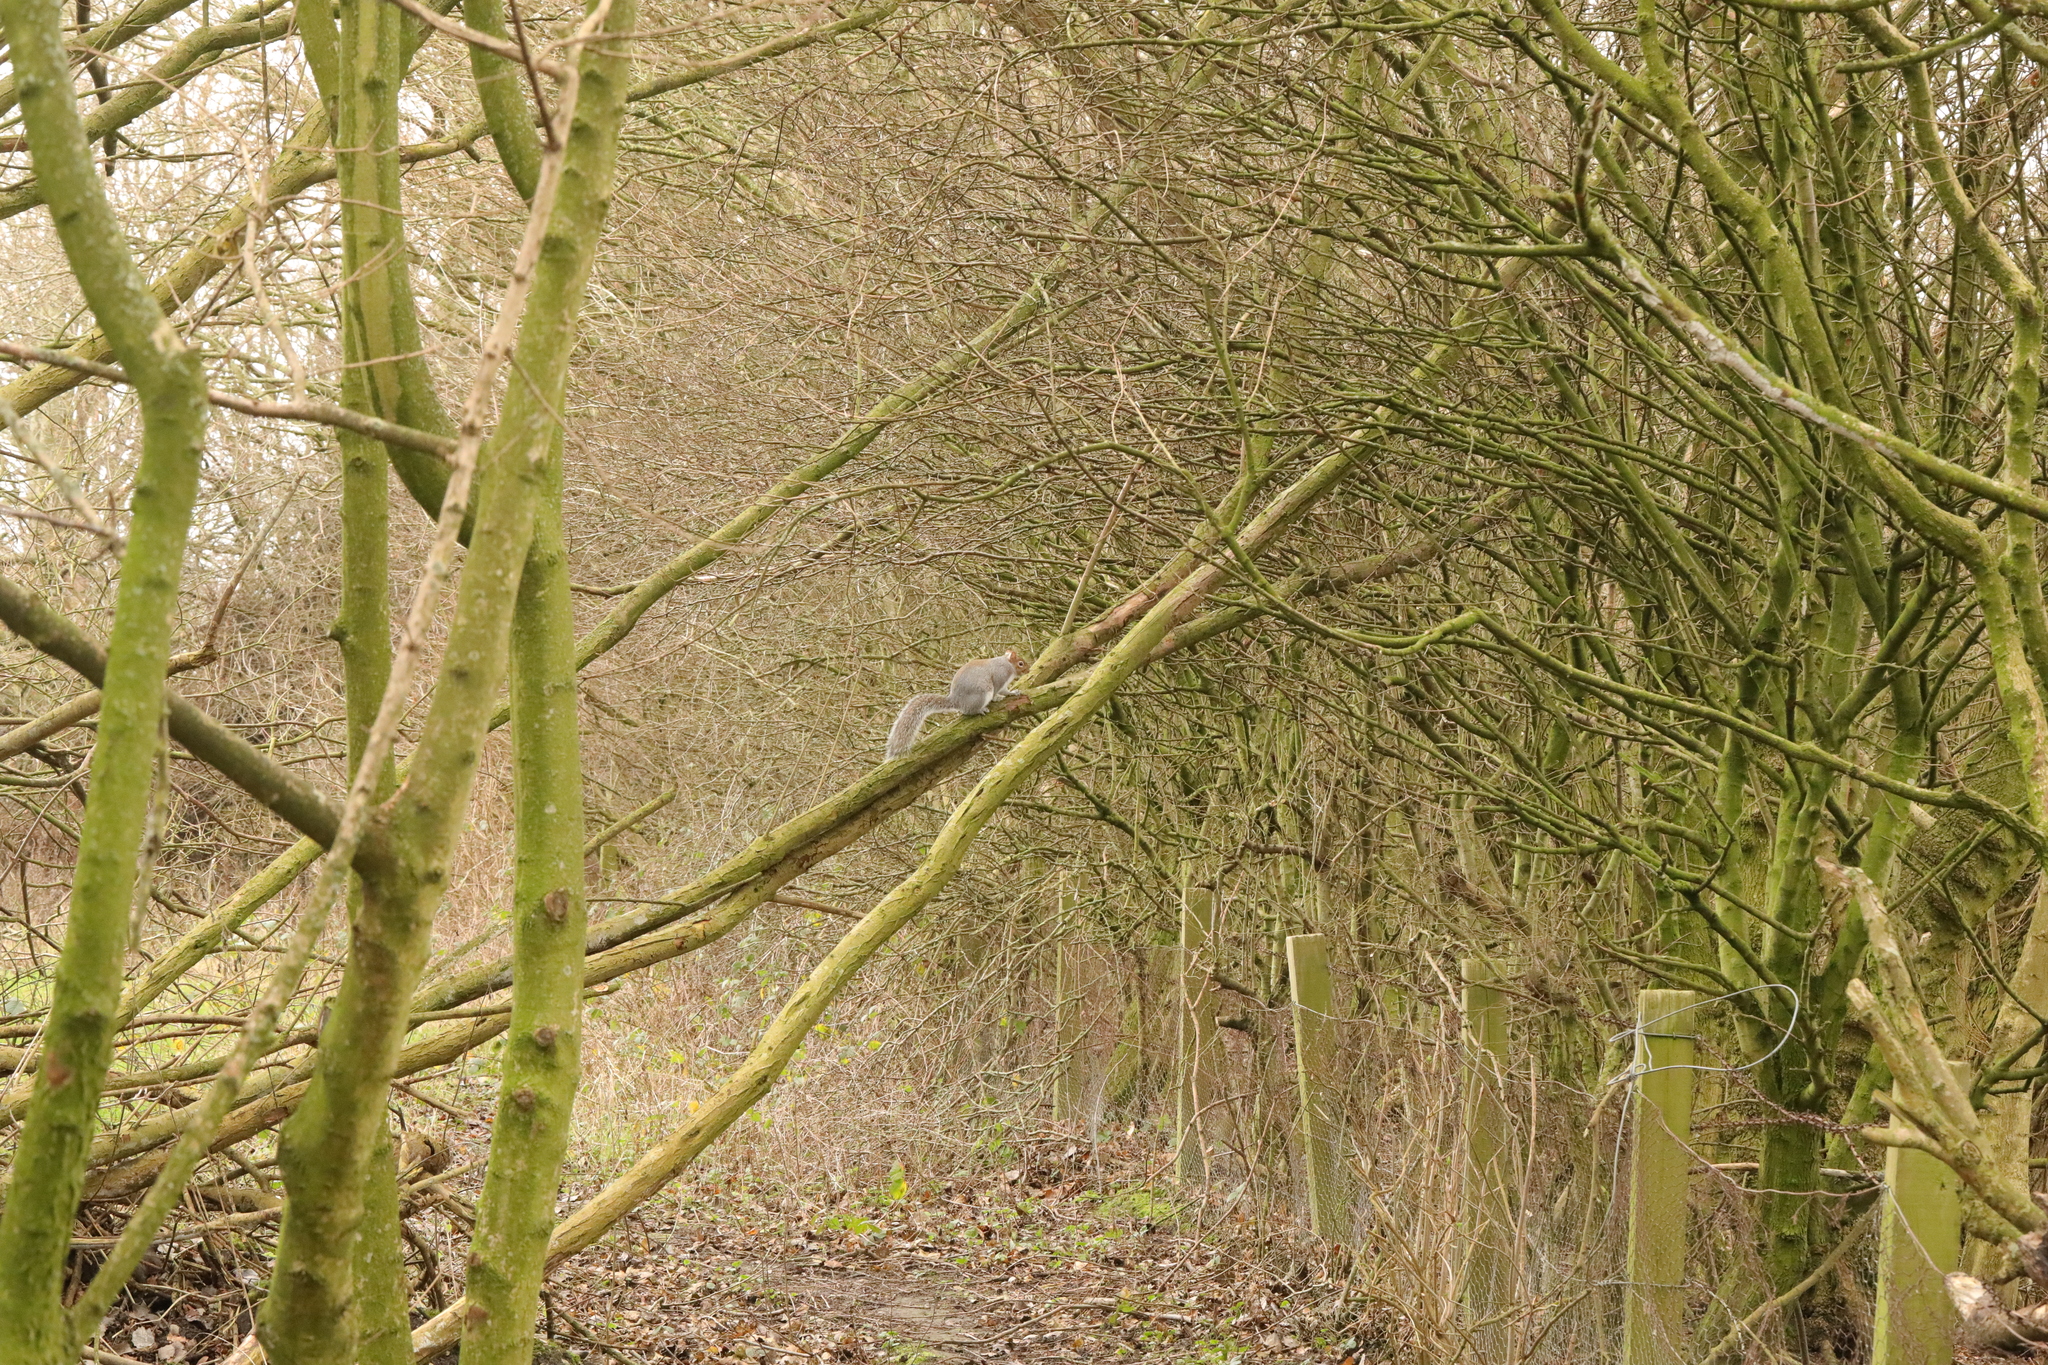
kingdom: Animalia
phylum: Chordata
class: Mammalia
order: Rodentia
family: Sciuridae
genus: Sciurus
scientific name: Sciurus carolinensis
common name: Eastern gray squirrel
